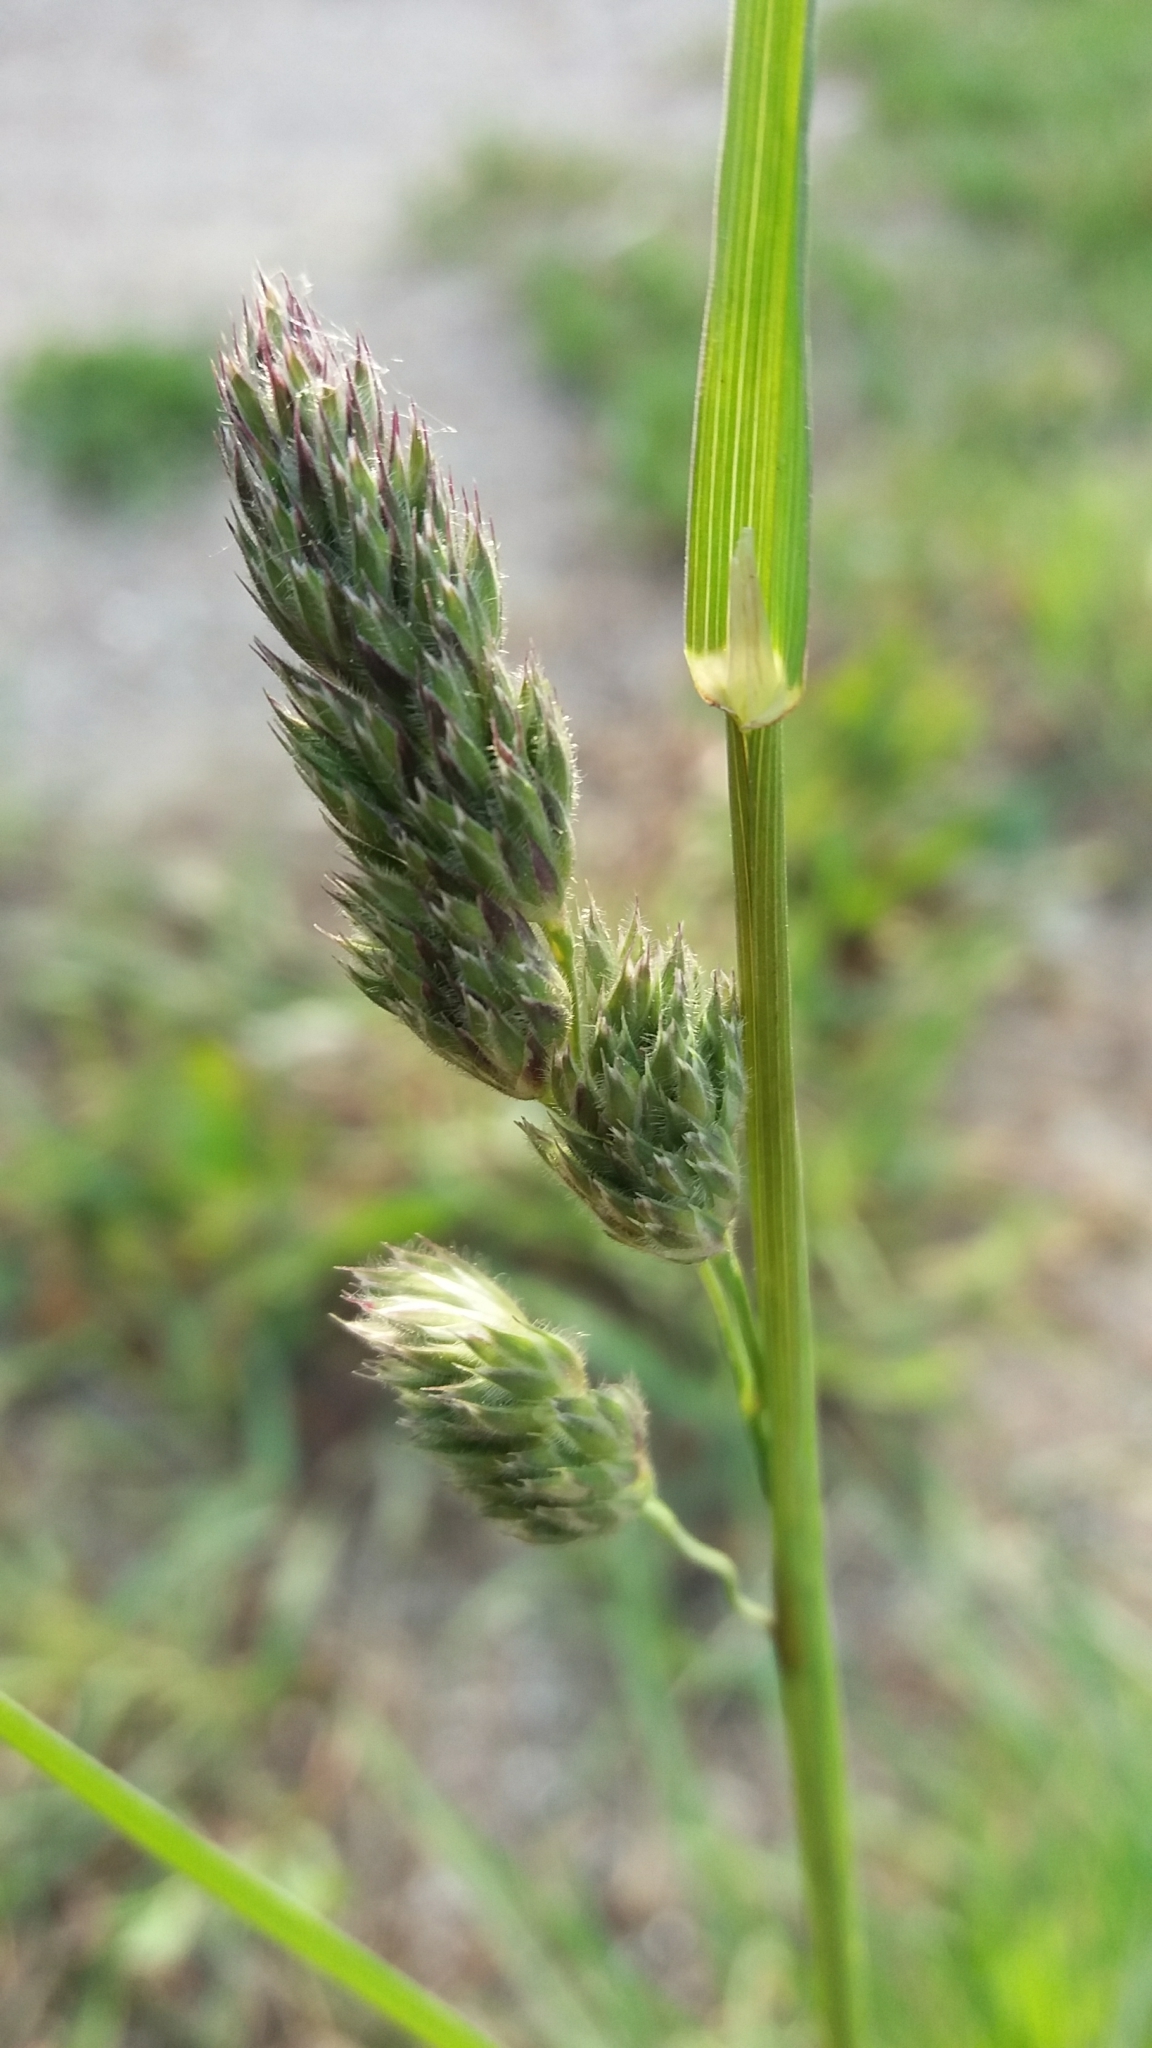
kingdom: Plantae
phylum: Tracheophyta
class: Liliopsida
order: Poales
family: Poaceae
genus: Dactylis
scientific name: Dactylis glomerata
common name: Orchardgrass
